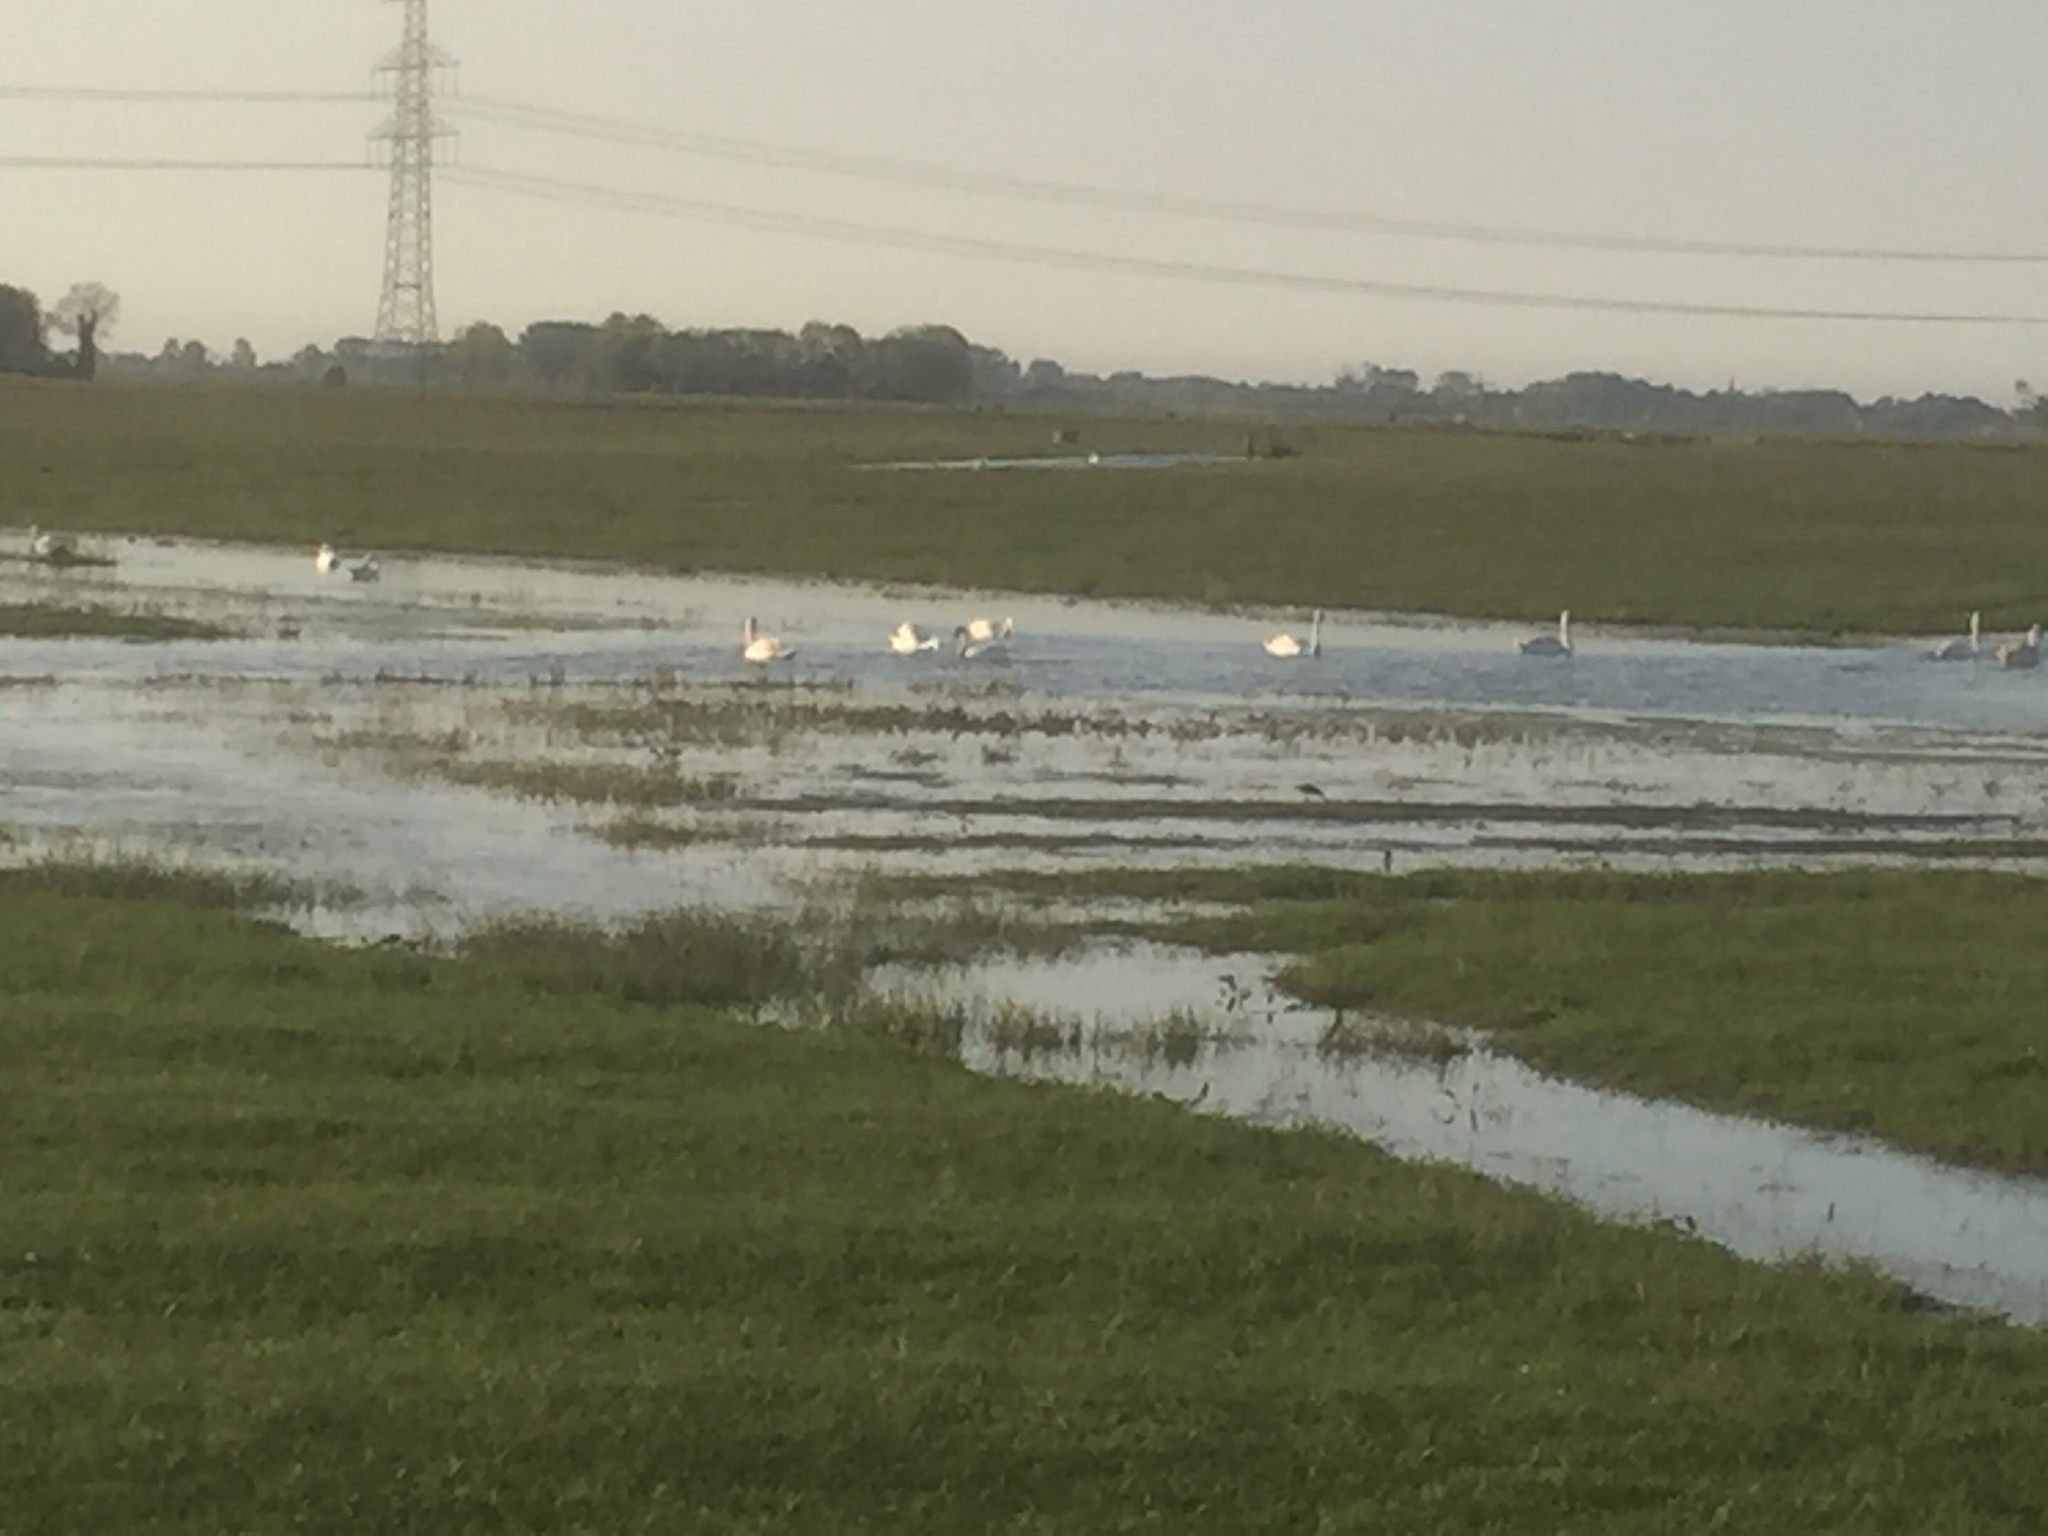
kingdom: Animalia
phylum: Chordata
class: Aves
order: Anseriformes
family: Anatidae
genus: Cygnus
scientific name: Cygnus olor
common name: Mute swan
